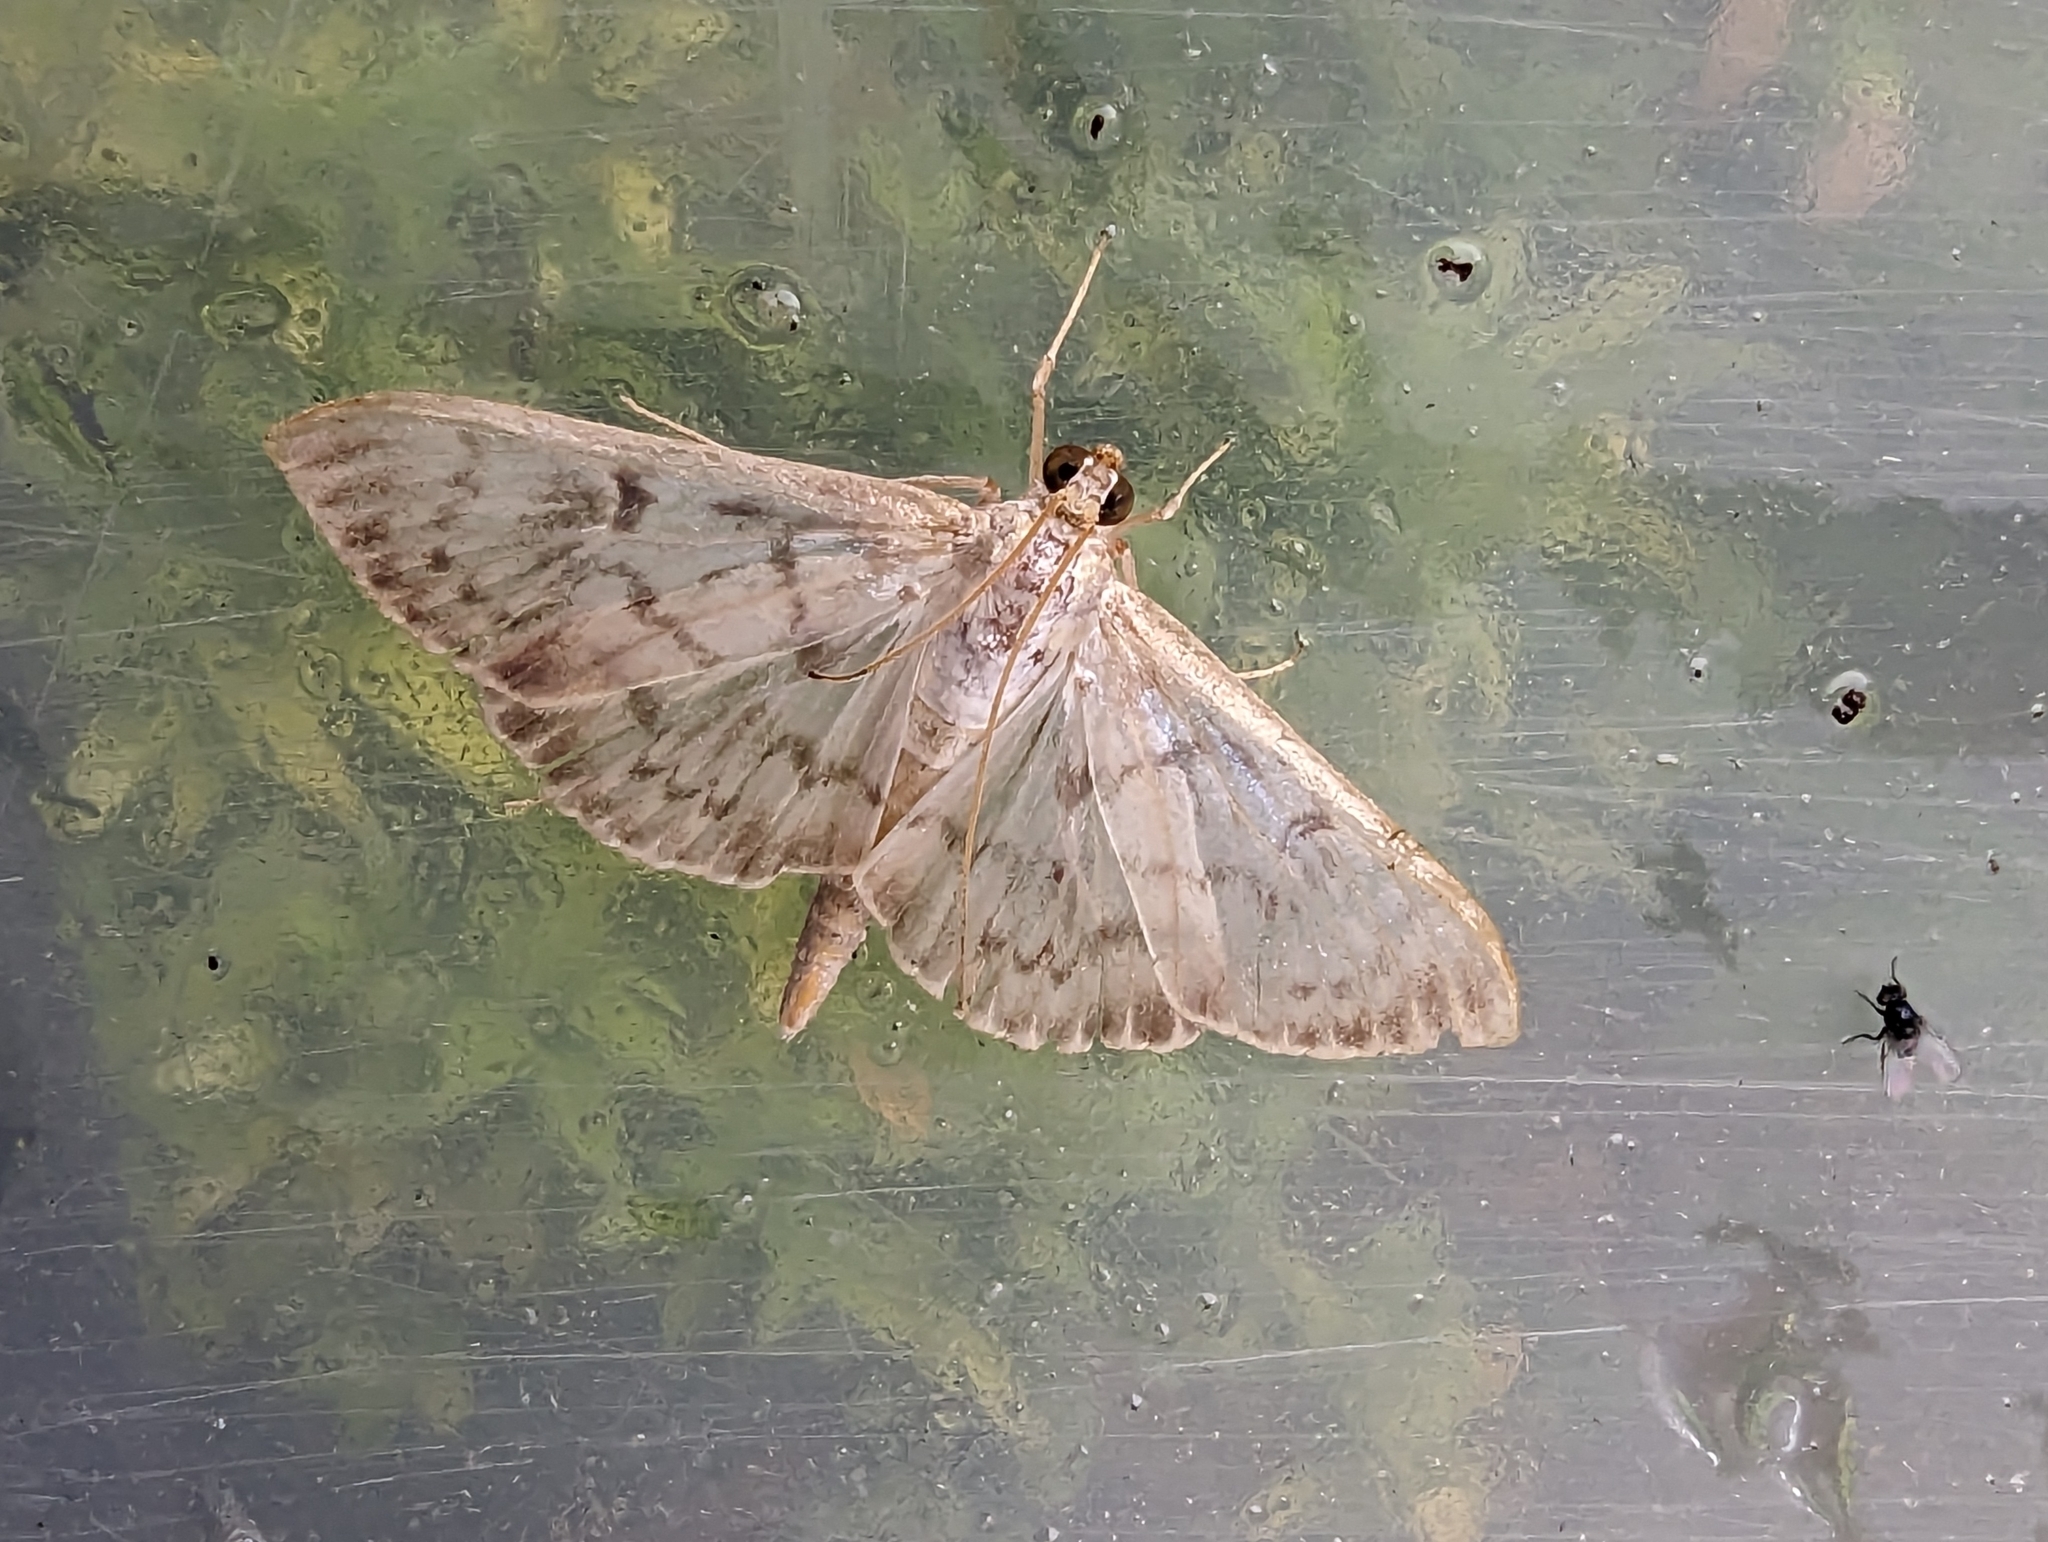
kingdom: Animalia
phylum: Arthropoda
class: Insecta
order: Lepidoptera
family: Crambidae
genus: Patania
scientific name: Patania ruralis
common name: Mother of pearl
